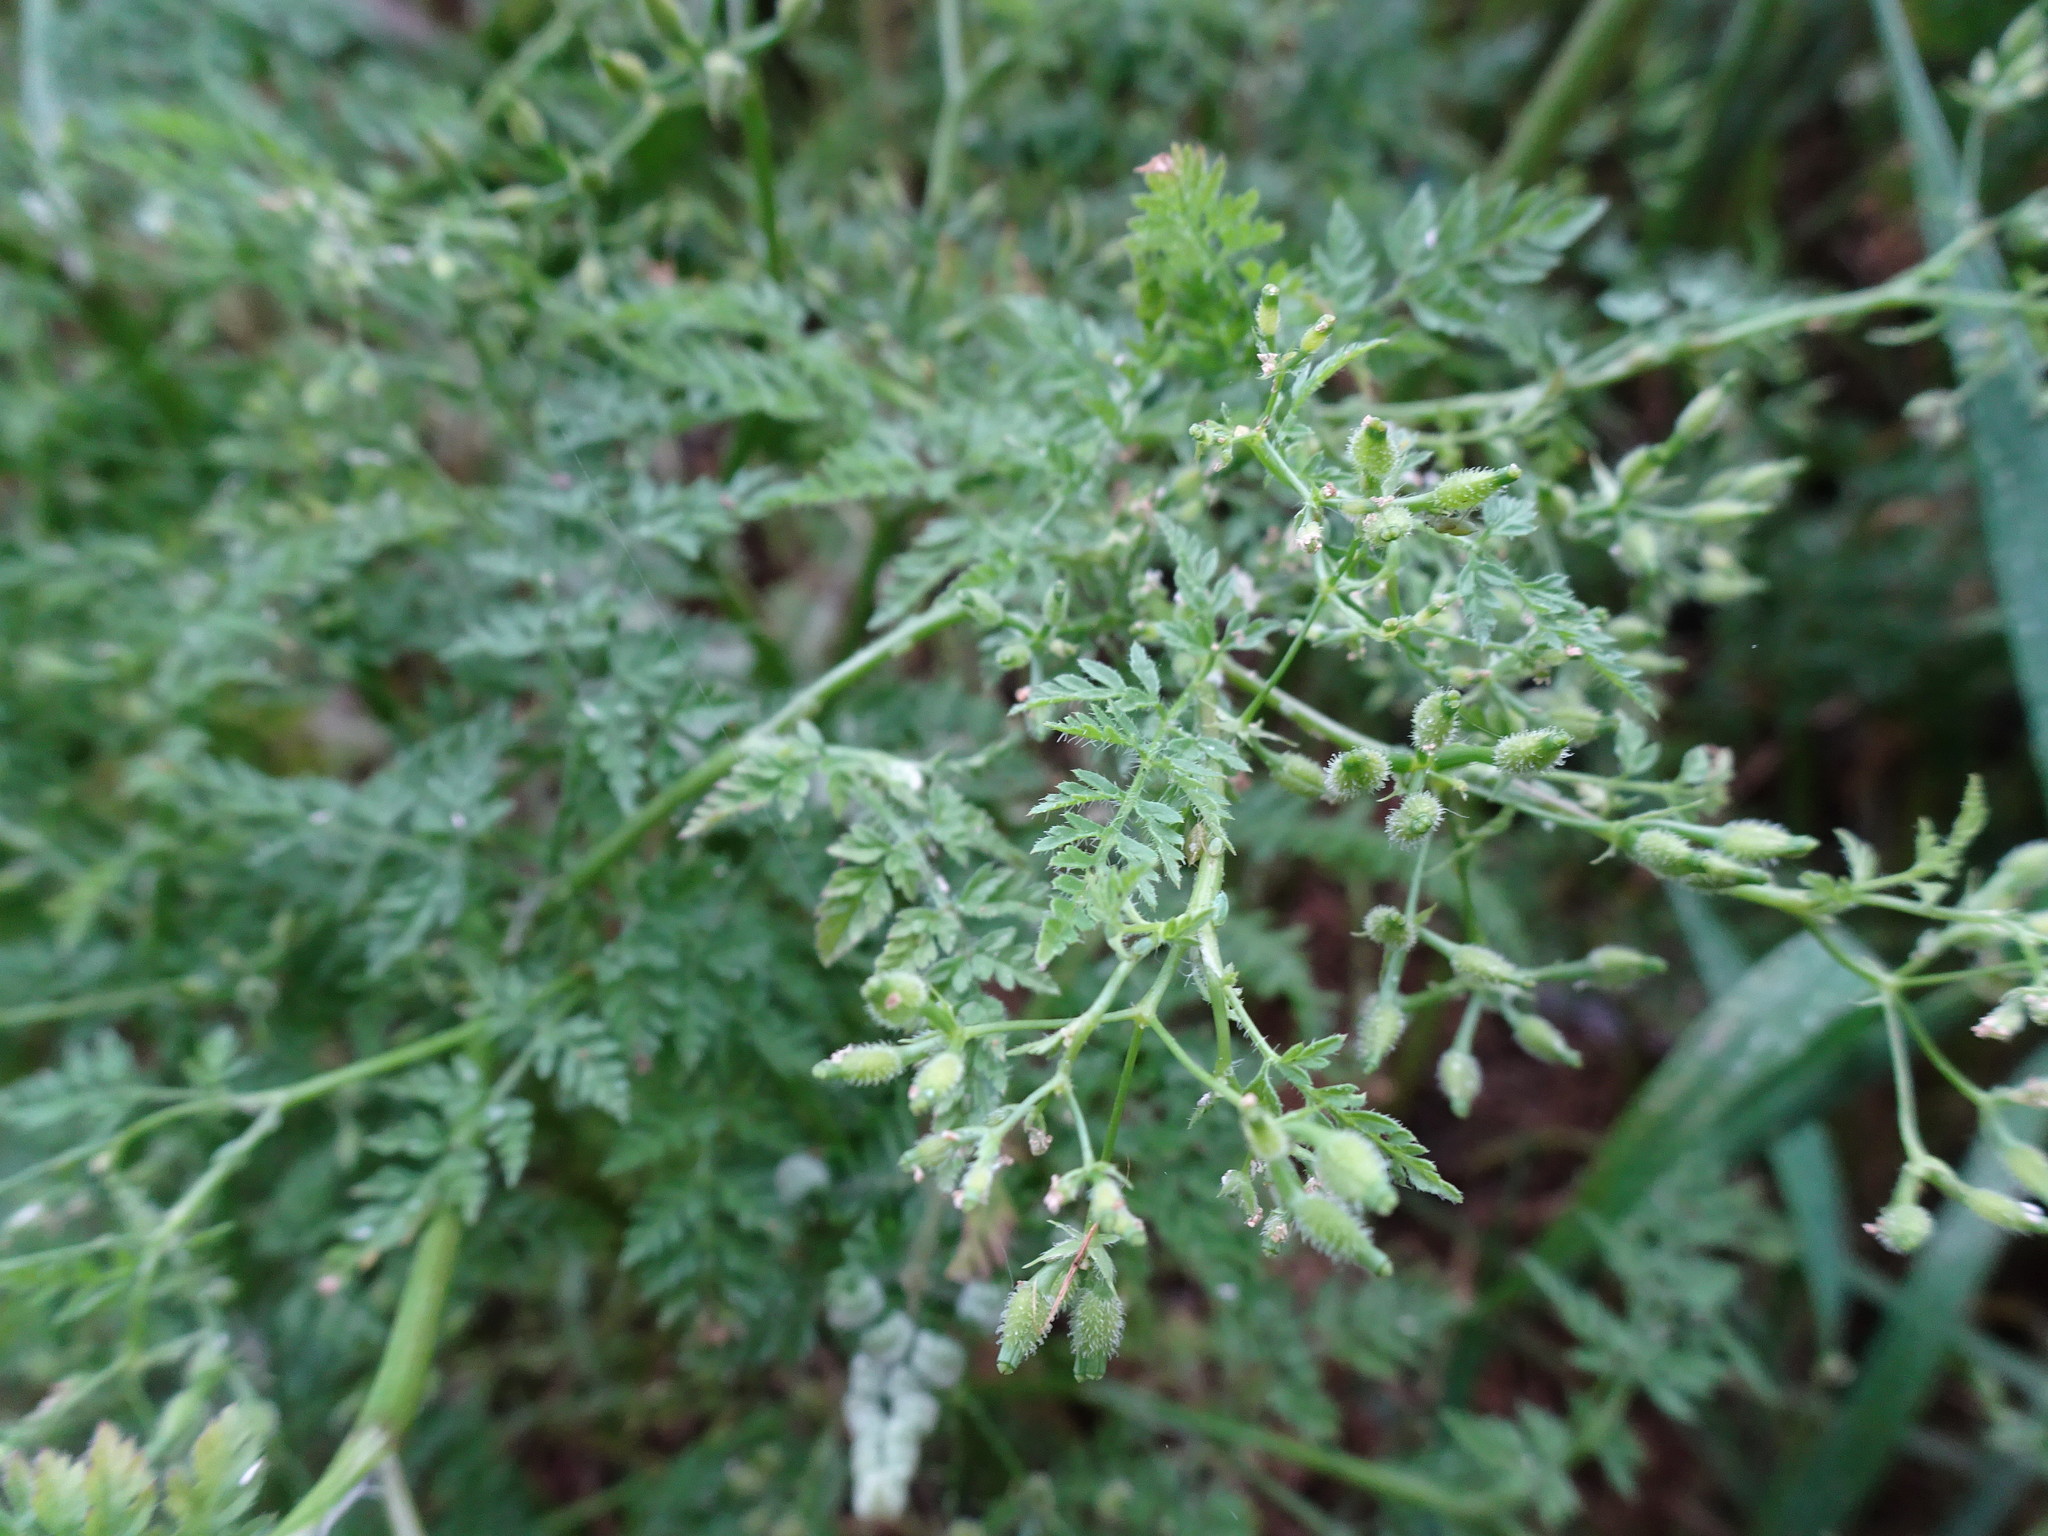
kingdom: Plantae
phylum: Tracheophyta
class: Magnoliopsida
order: Apiales
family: Apiaceae
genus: Anthriscus
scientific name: Anthriscus caucalis
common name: Bur chervil
